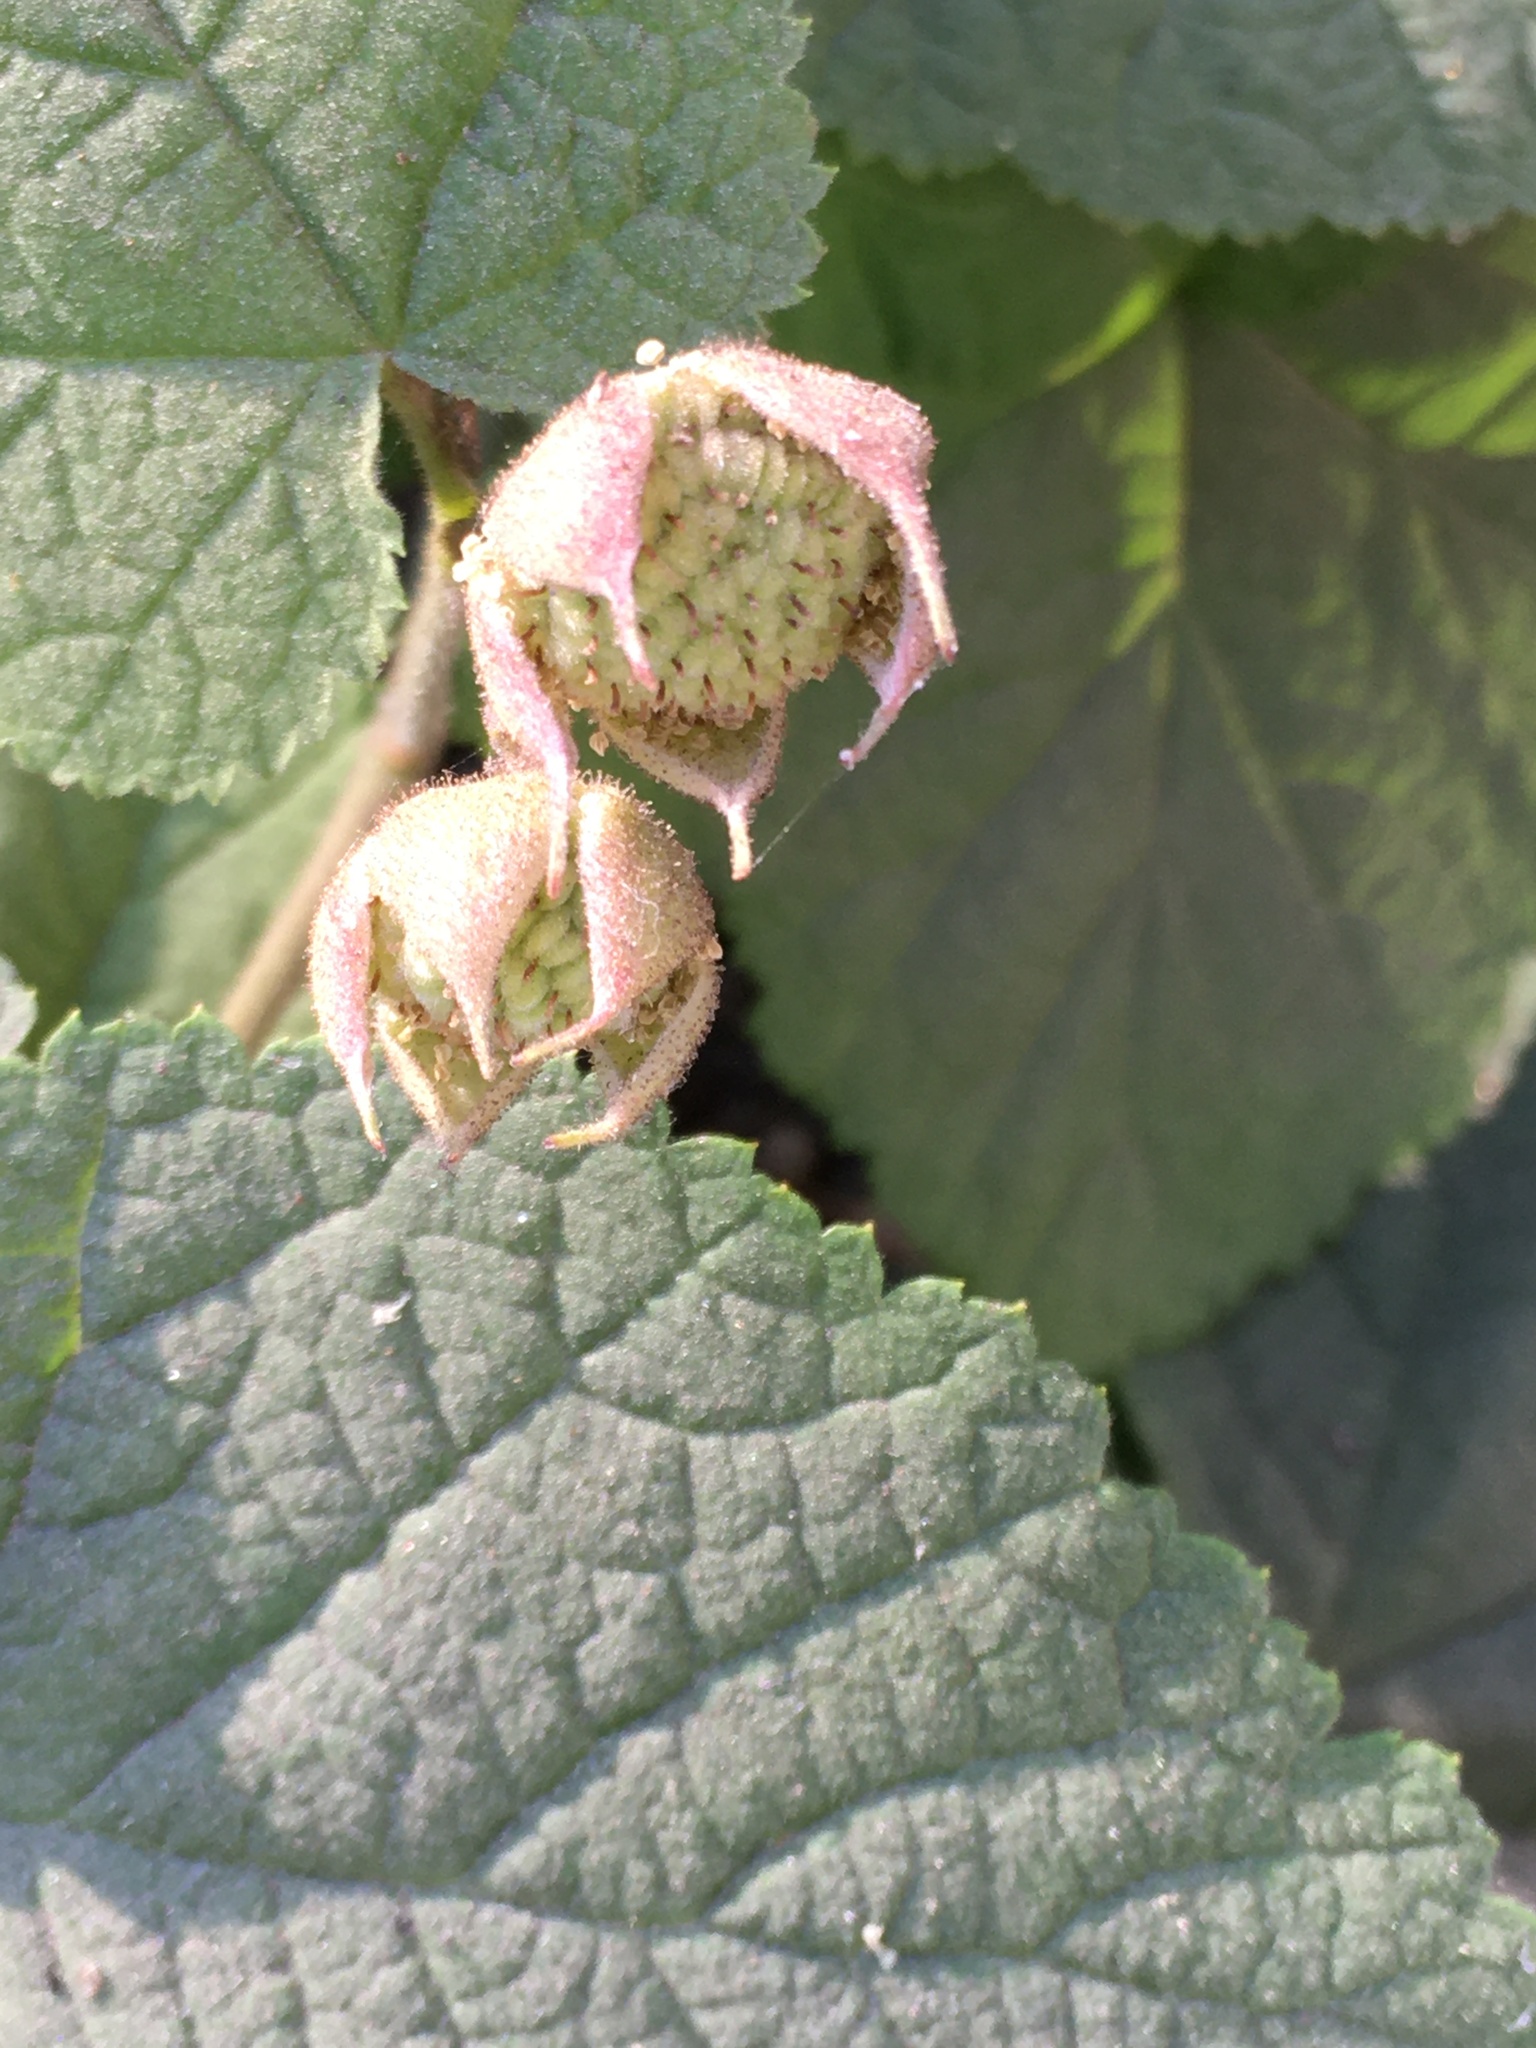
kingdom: Plantae
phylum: Tracheophyta
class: Magnoliopsida
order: Rosales
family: Rosaceae
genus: Rubus
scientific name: Rubus parviflorus
